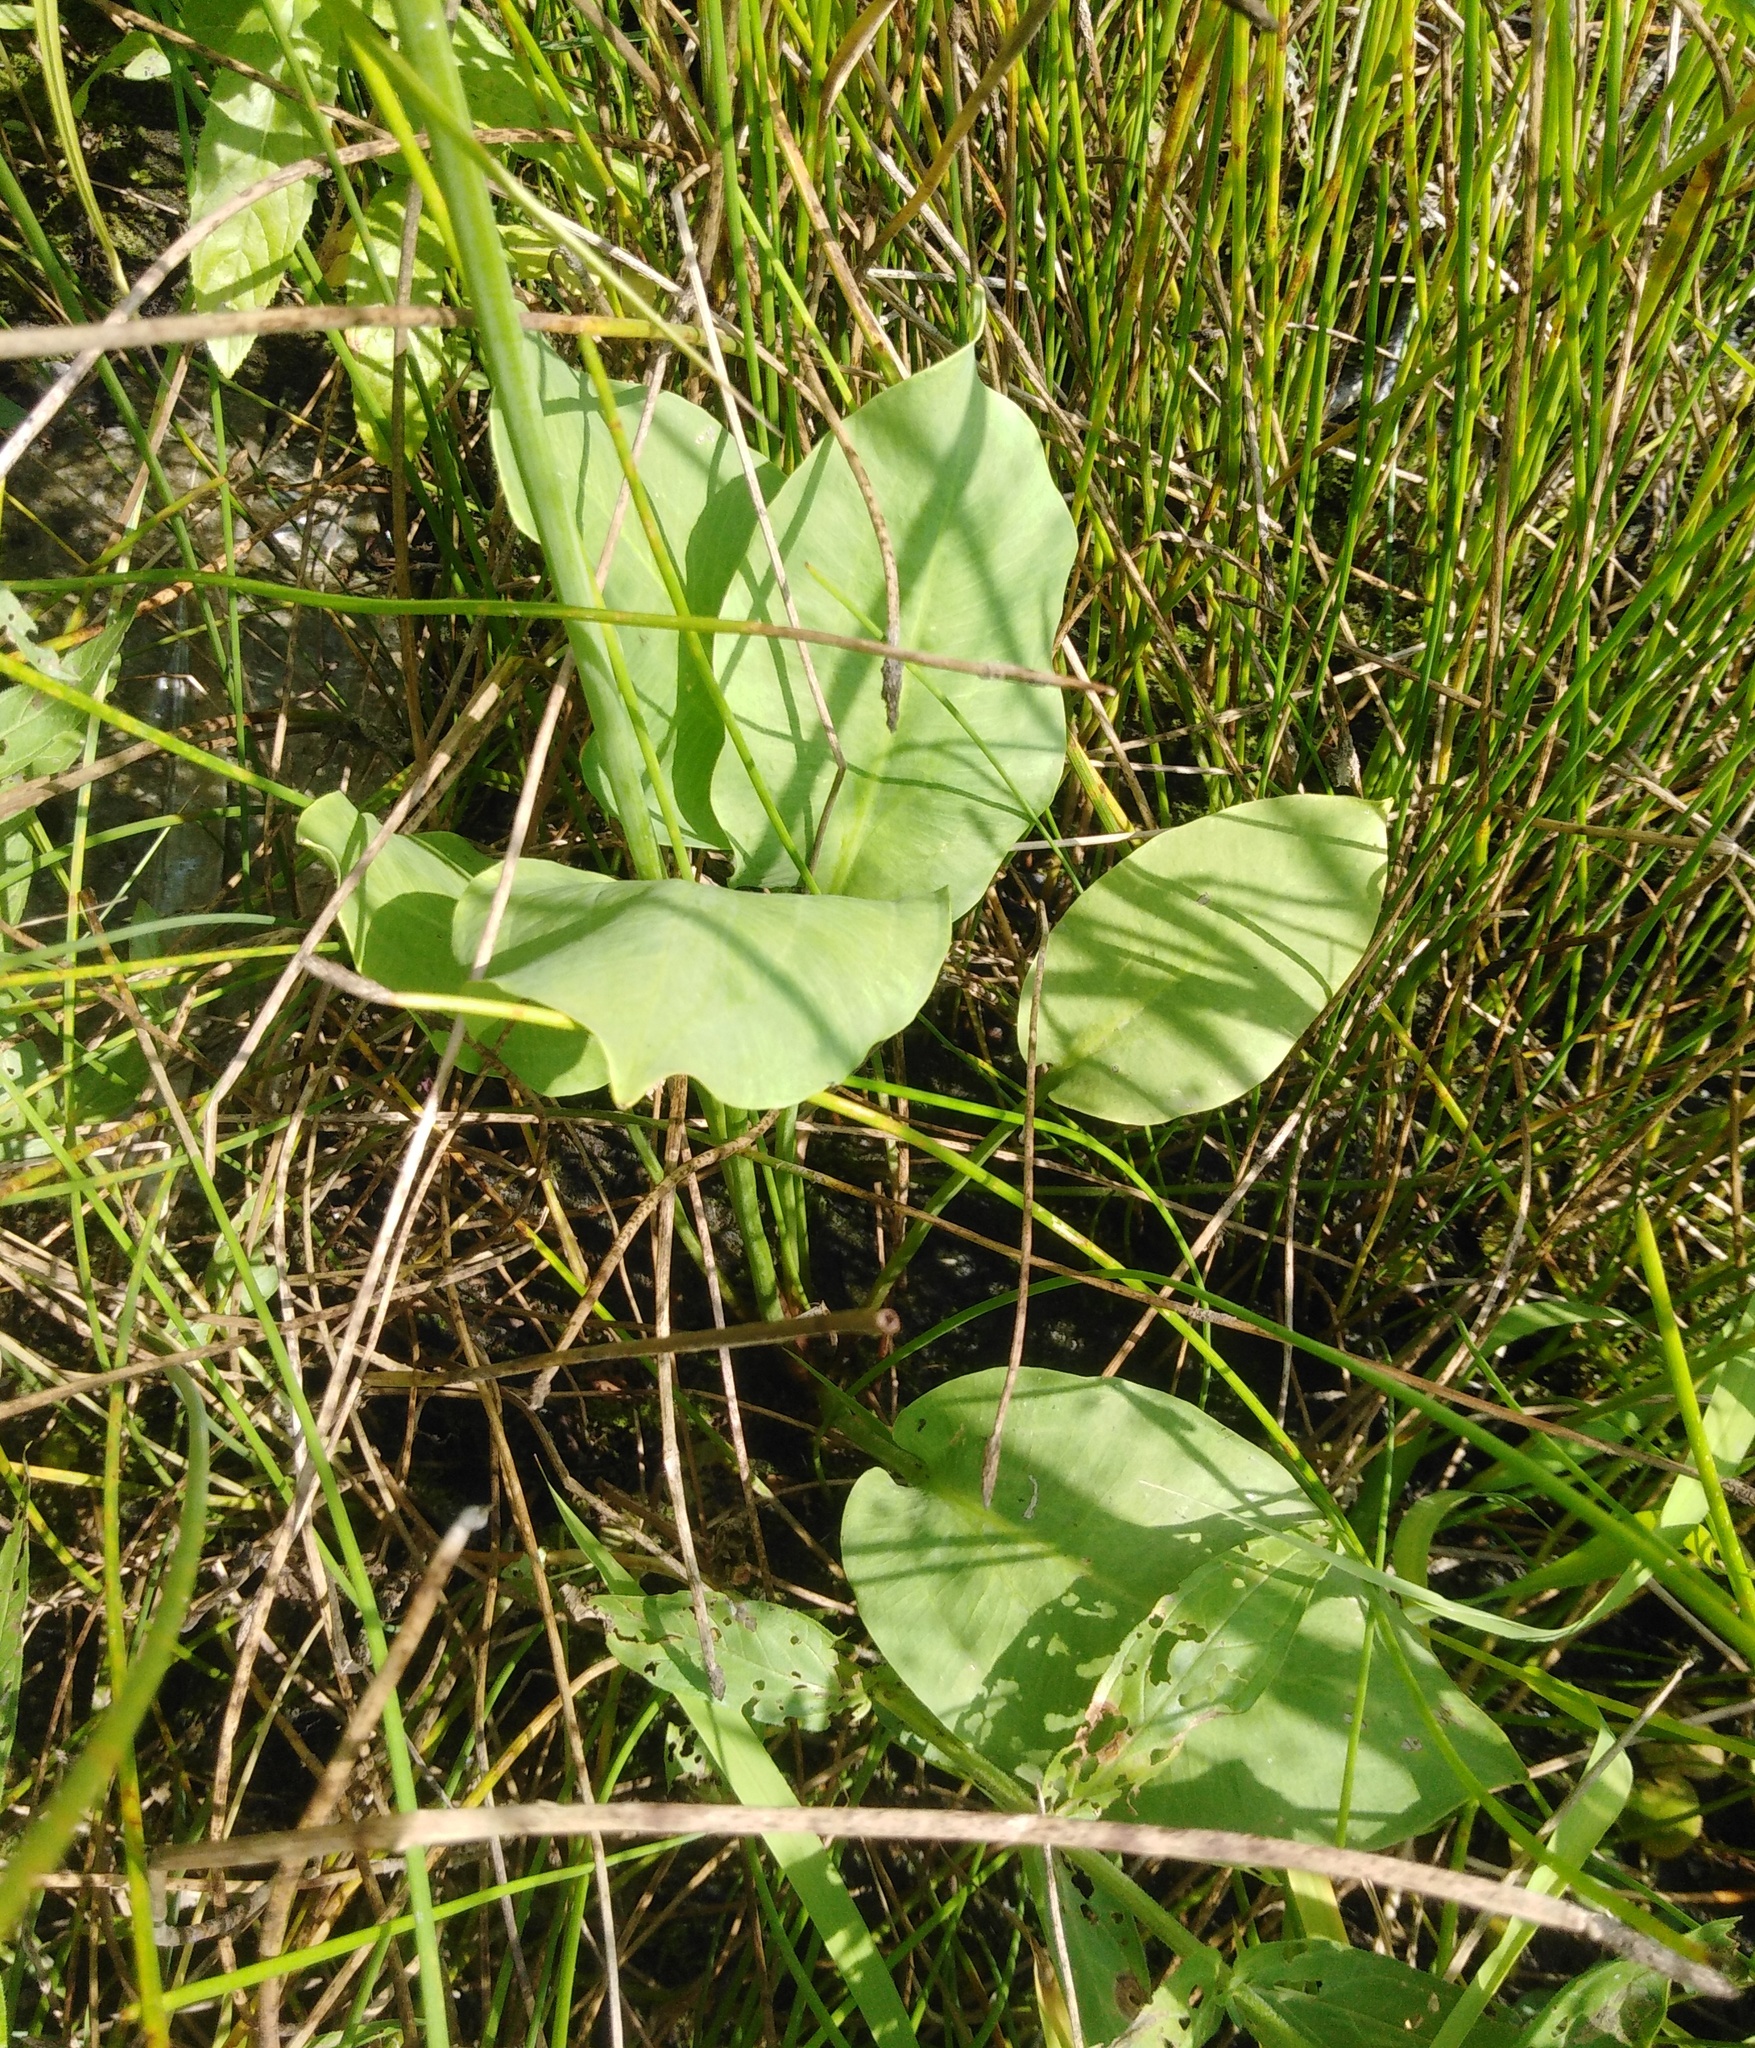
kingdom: Plantae
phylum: Tracheophyta
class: Liliopsida
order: Alismatales
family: Alismataceae
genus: Alisma
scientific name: Alisma plantago-aquatica
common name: Water-plantain
